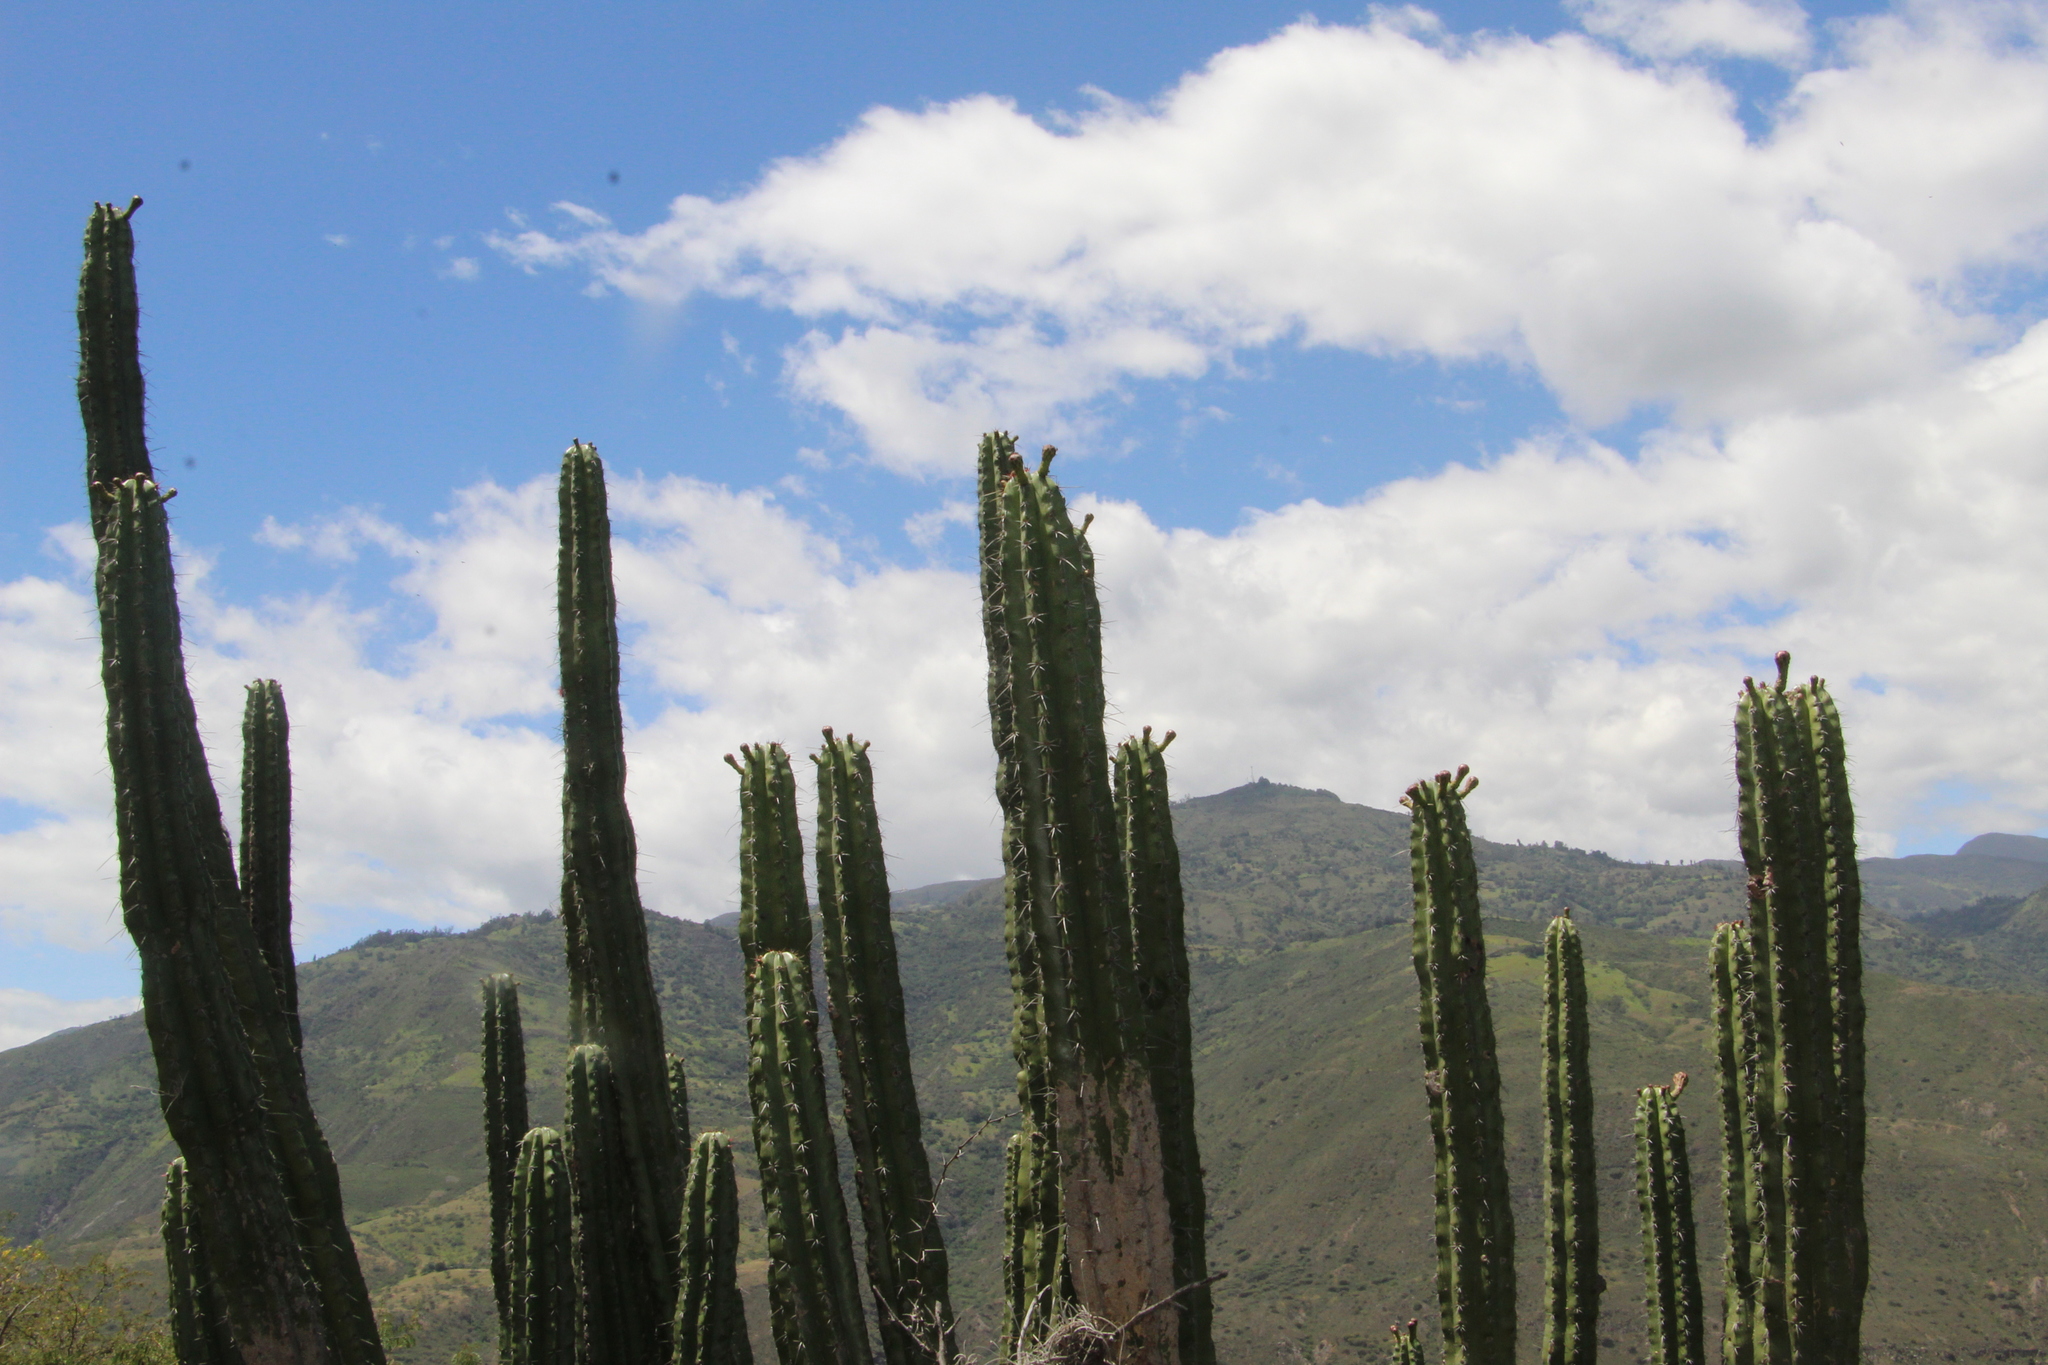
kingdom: Plantae
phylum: Tracheophyta
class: Magnoliopsida
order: Caryophyllales
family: Cactaceae
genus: Stenocereus
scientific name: Stenocereus griseus
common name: Tall candelabra cactus
